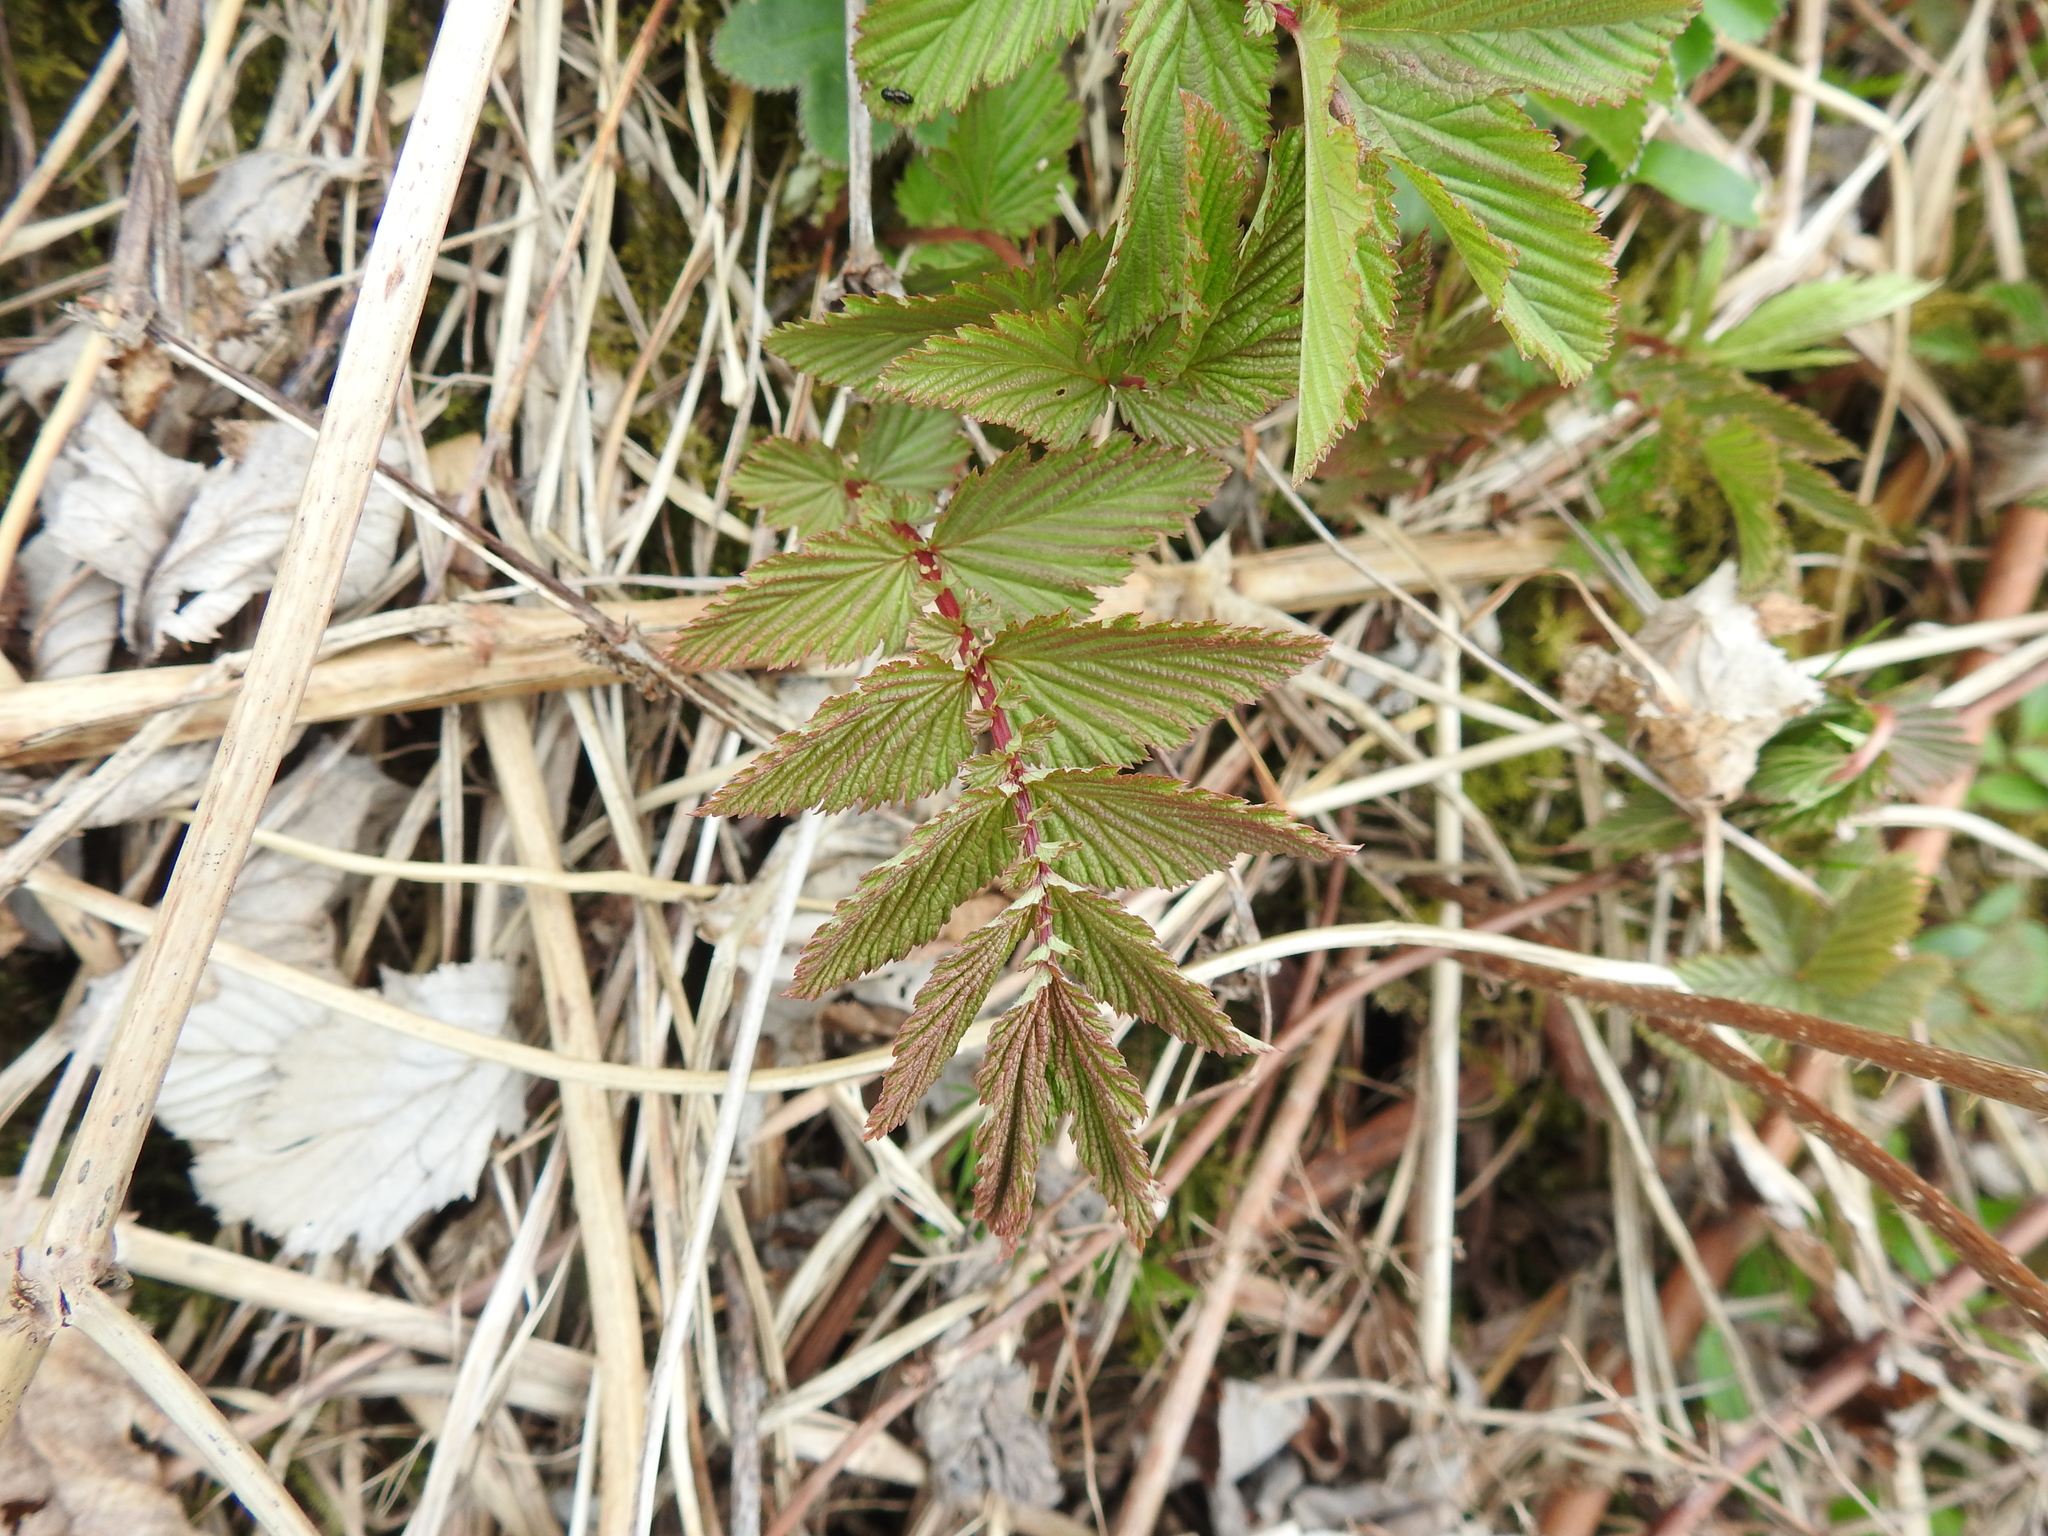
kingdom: Plantae
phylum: Tracheophyta
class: Magnoliopsida
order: Rosales
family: Rosaceae
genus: Filipendula
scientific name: Filipendula ulmaria
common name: Meadowsweet
